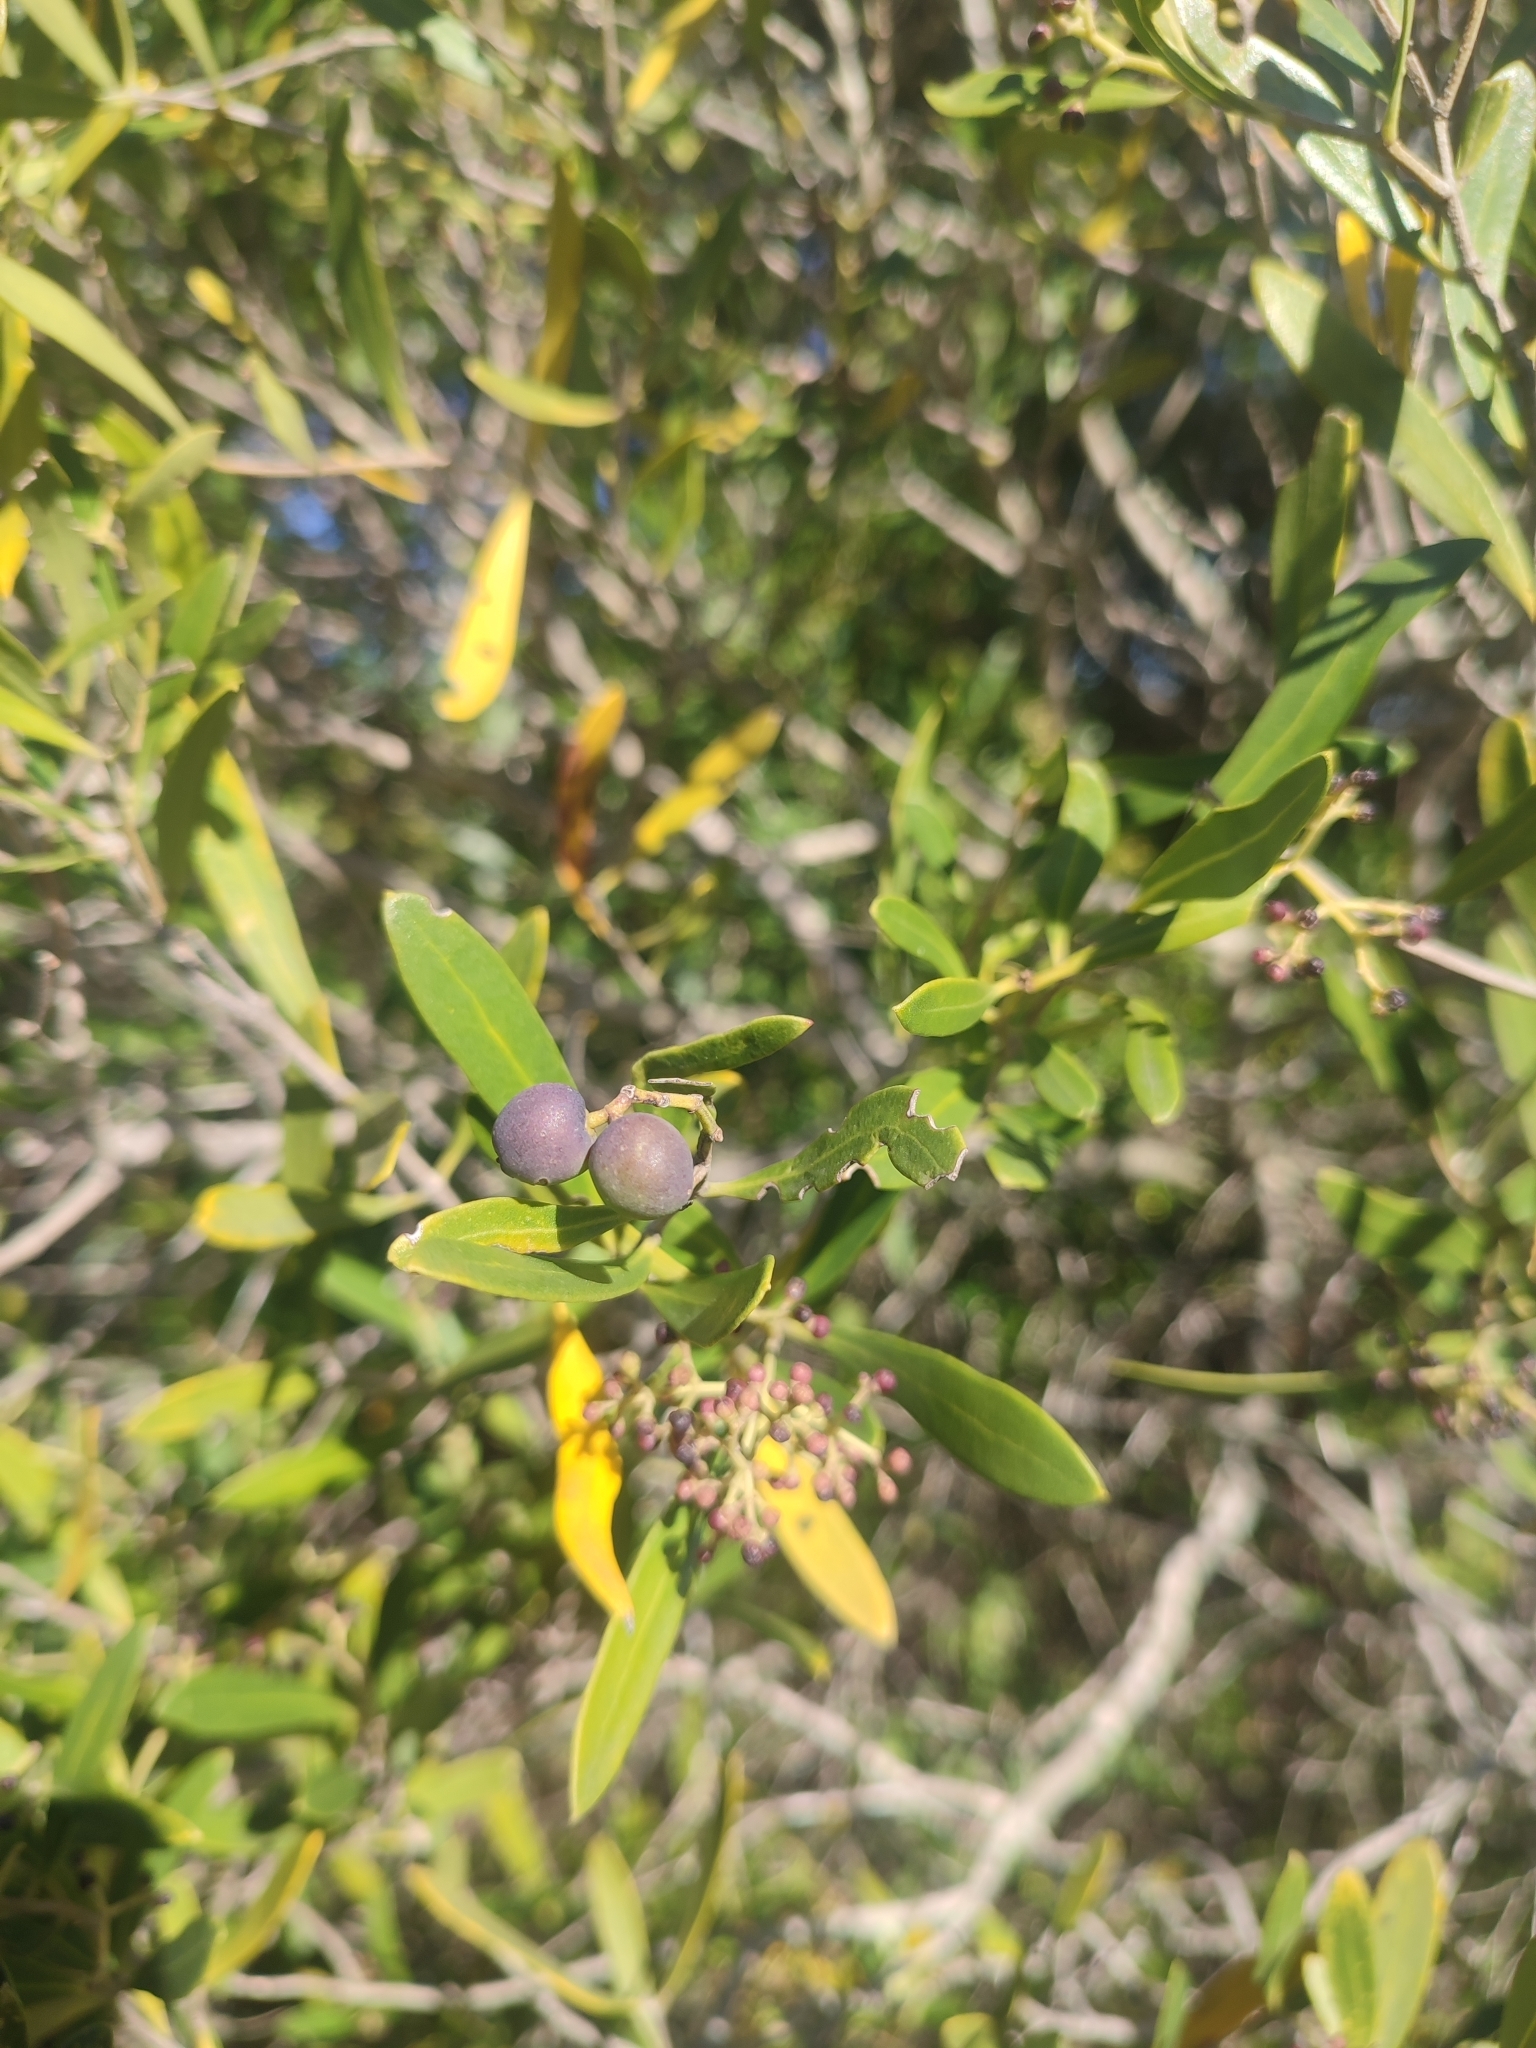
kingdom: Plantae
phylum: Tracheophyta
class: Magnoliopsida
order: Lamiales
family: Oleaceae
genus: Olea
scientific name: Olea exasperata
